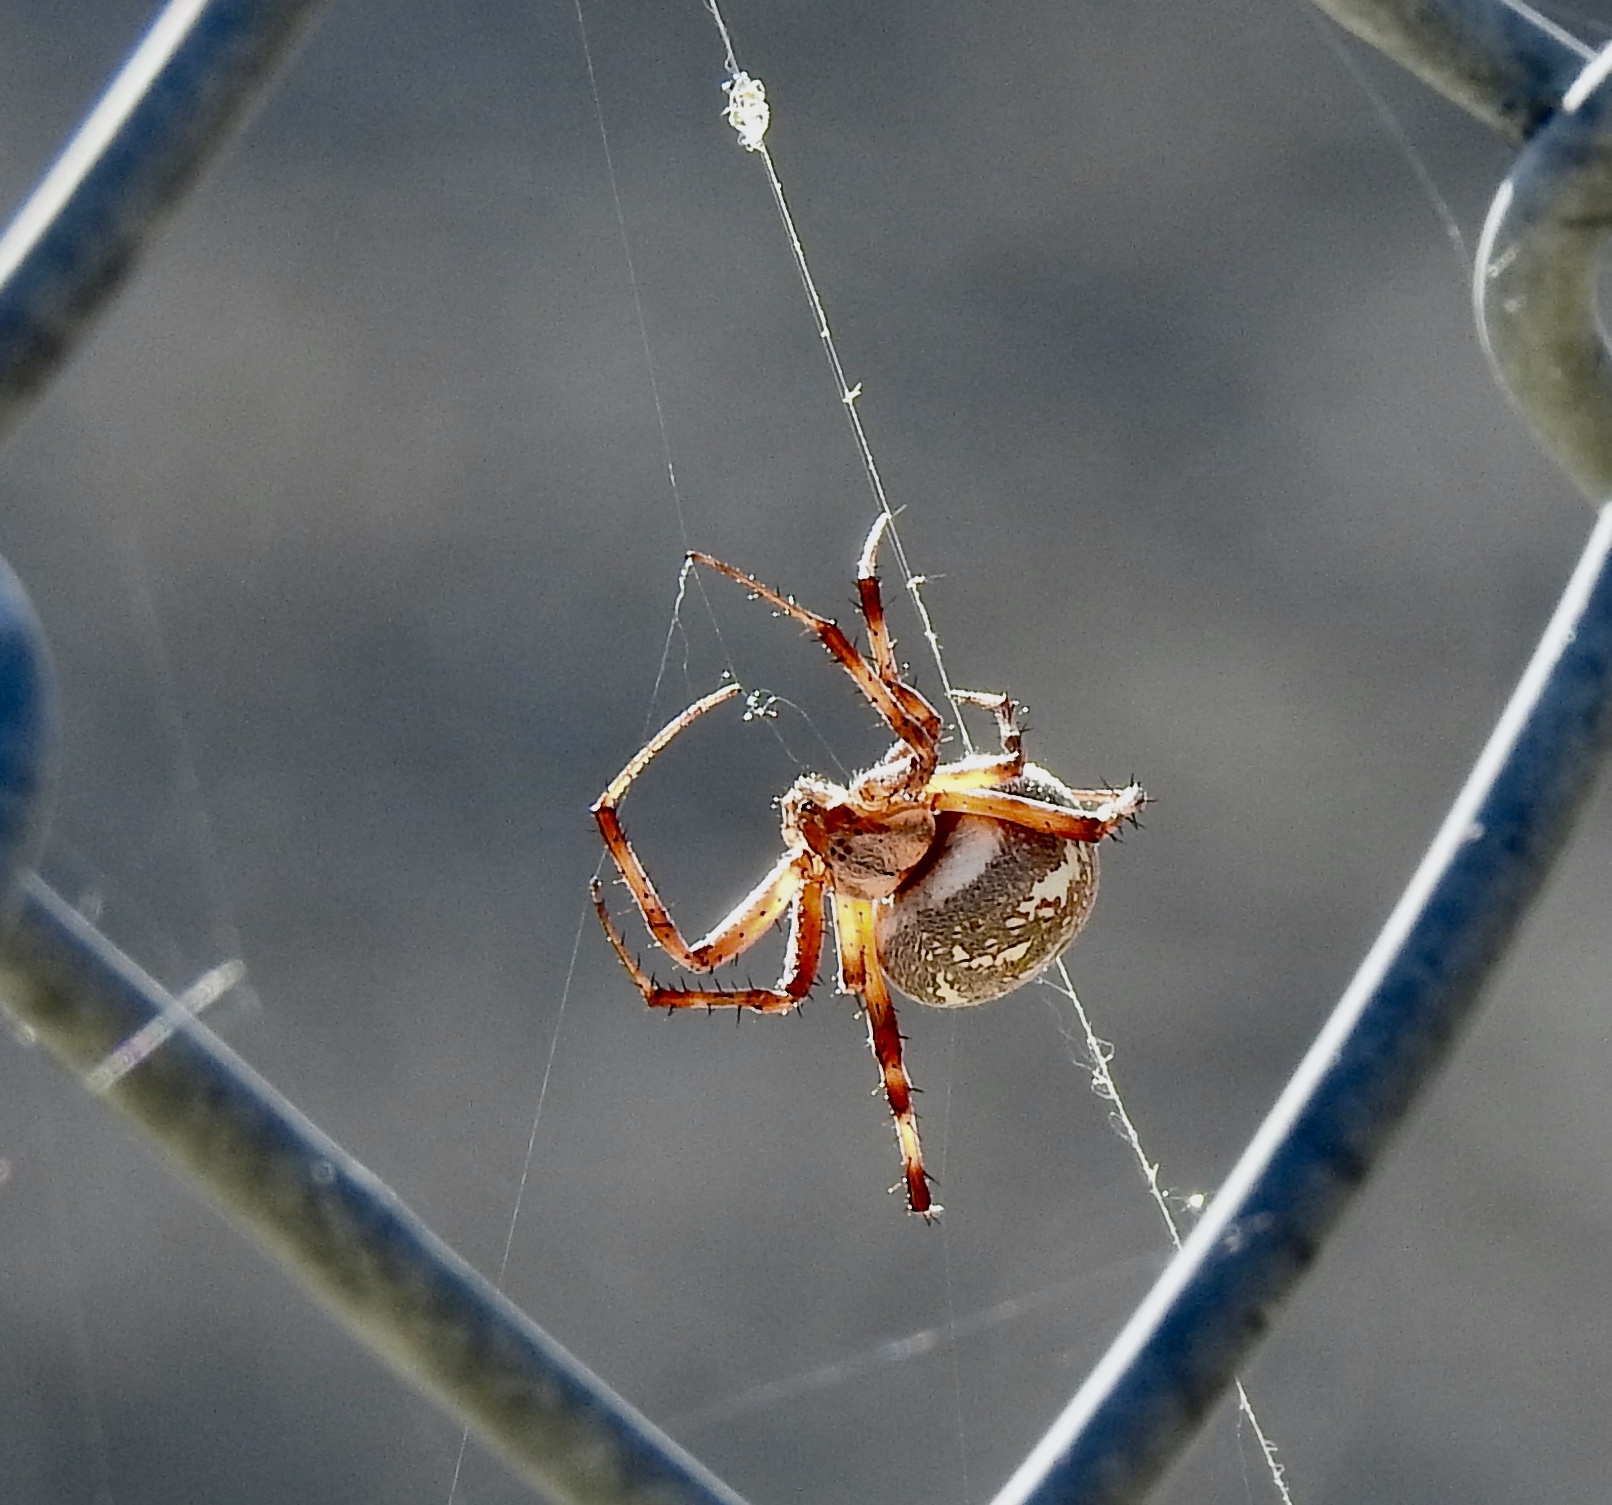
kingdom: Animalia
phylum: Arthropoda
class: Arachnida
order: Araneae
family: Araneidae
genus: Neoscona
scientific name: Neoscona oaxacensis
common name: Orb weavers
